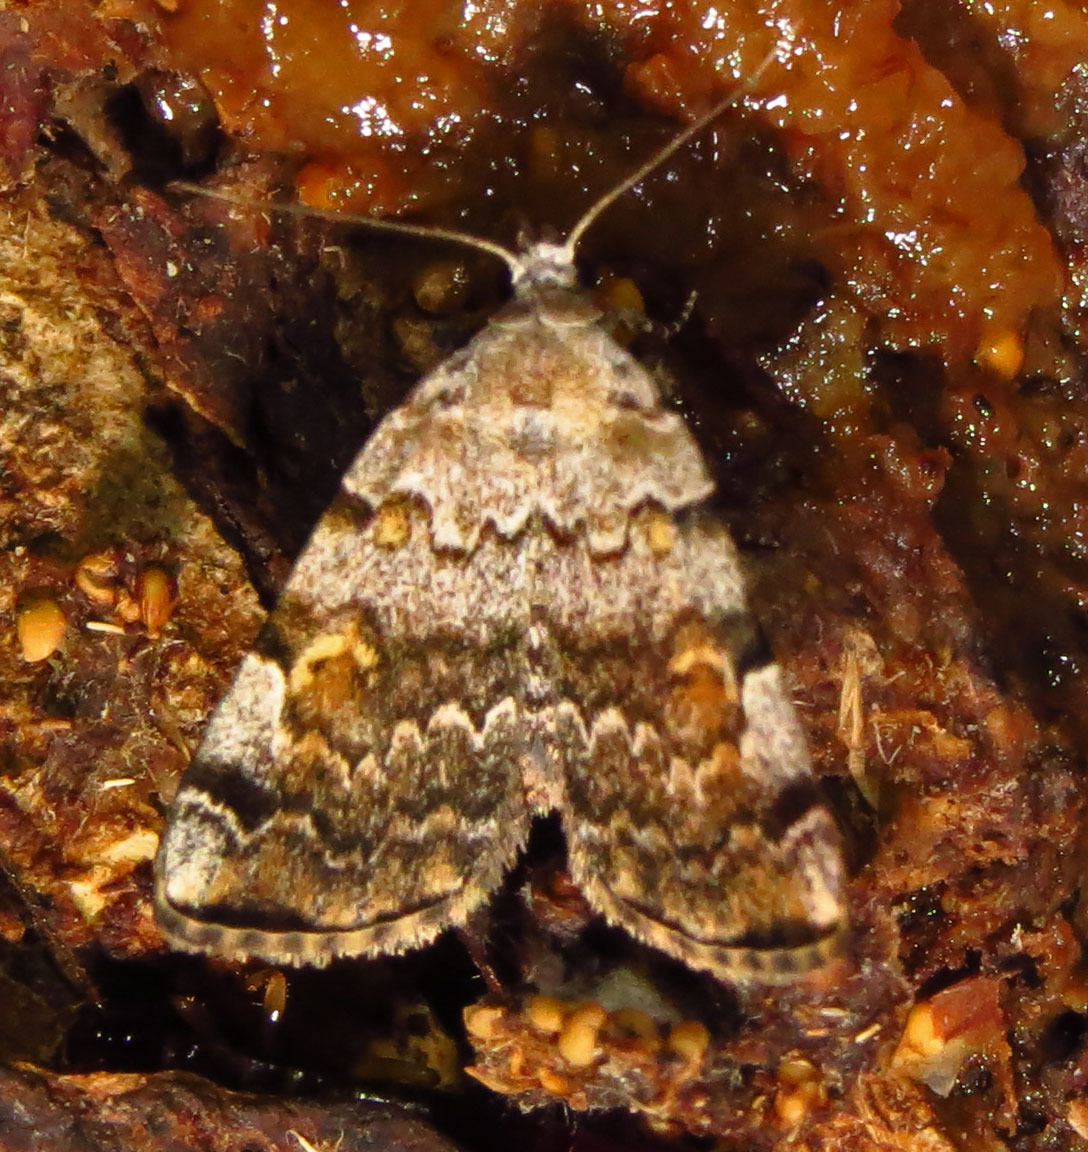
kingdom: Animalia
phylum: Arthropoda
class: Insecta
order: Lepidoptera
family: Erebidae
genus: Idia
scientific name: Idia americalis
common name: American idia moth
